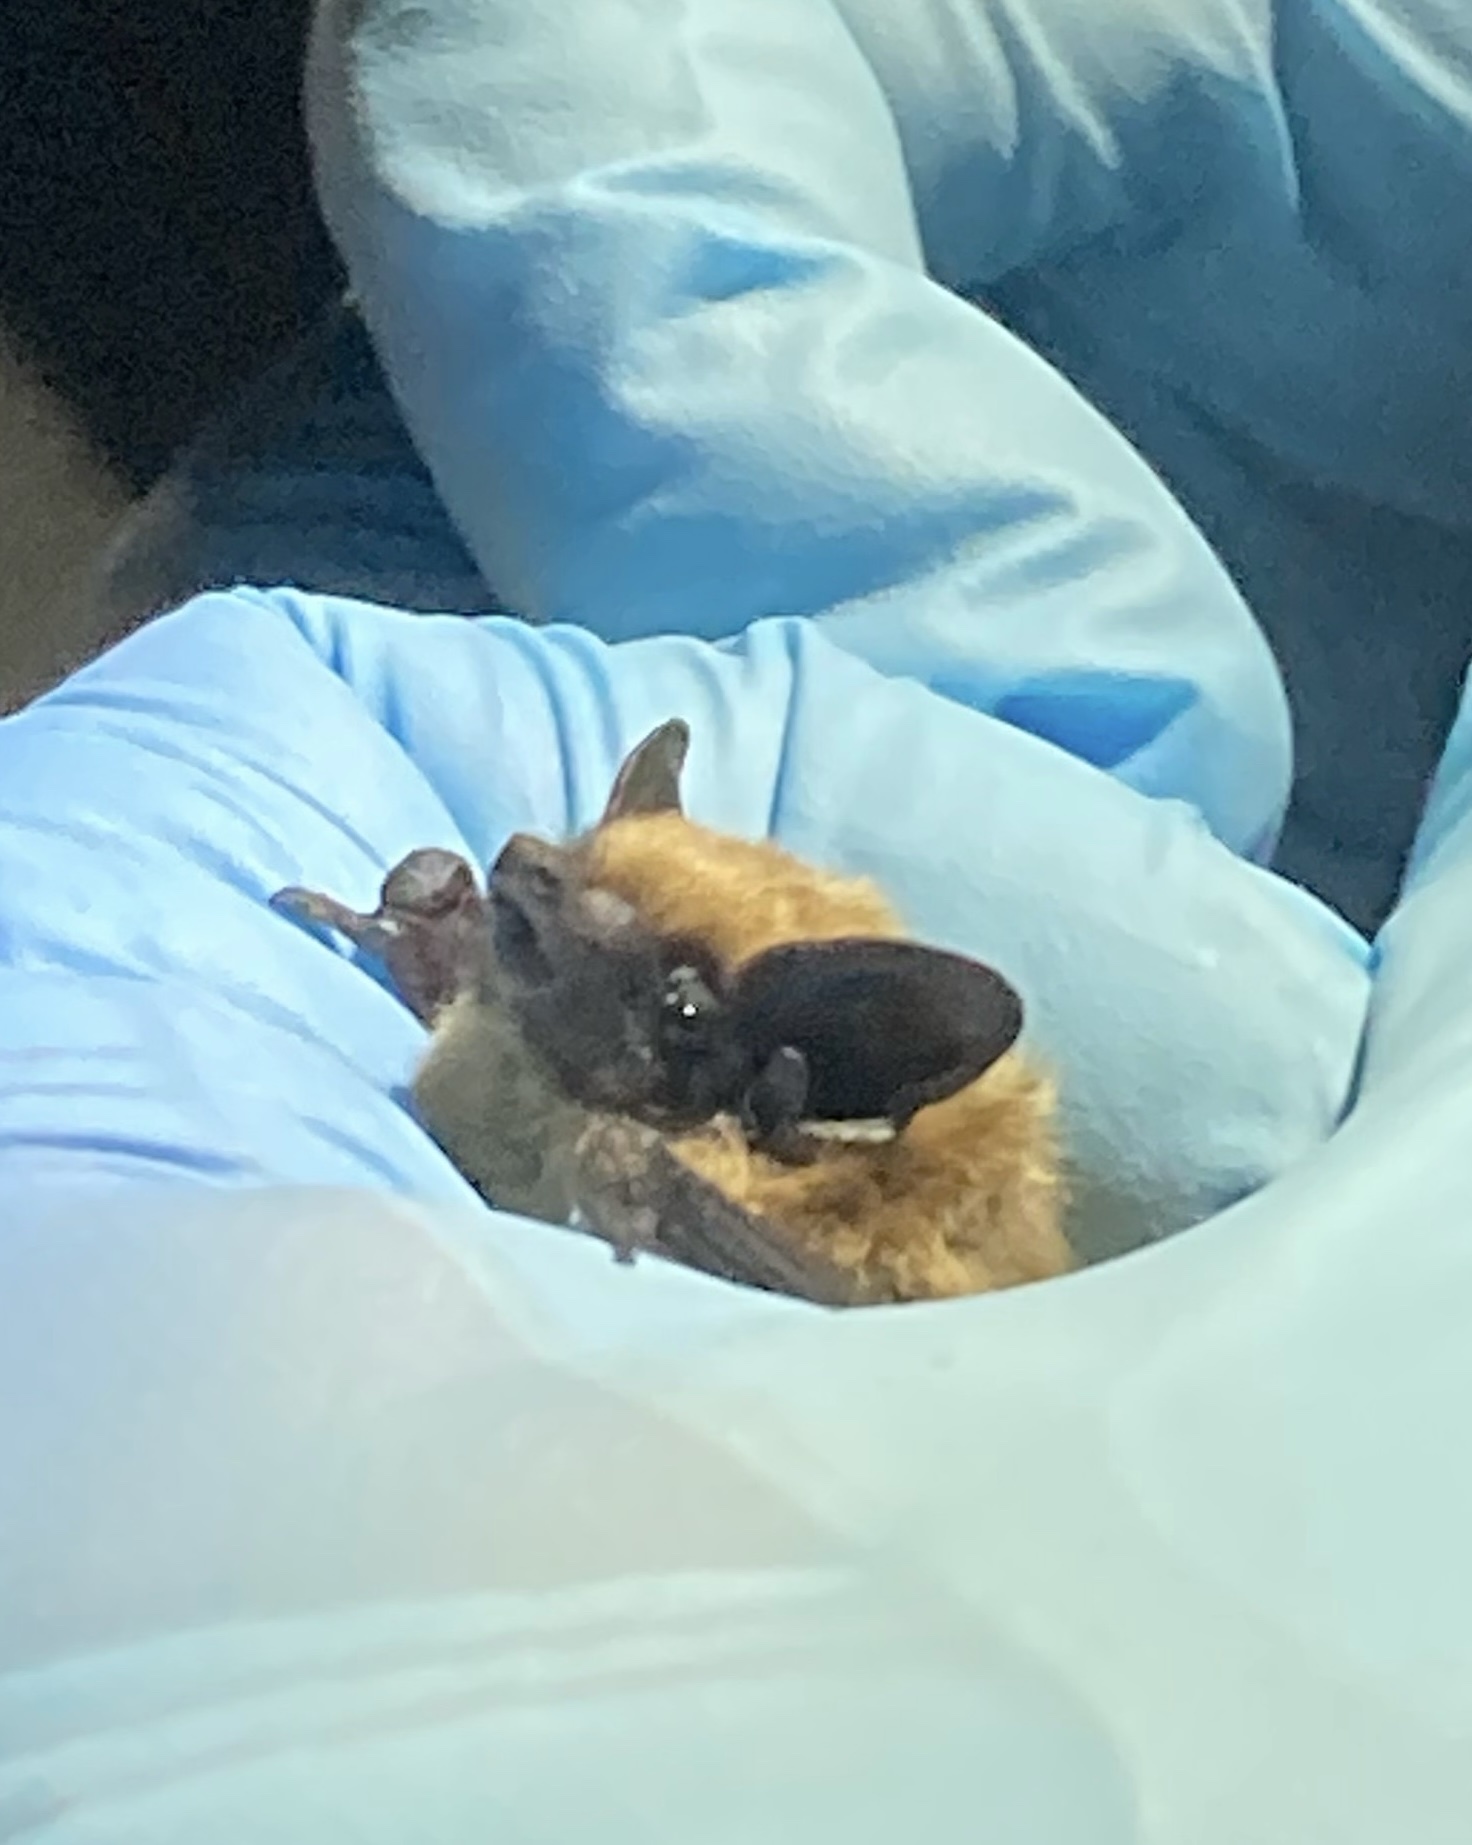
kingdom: Animalia
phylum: Chordata
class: Mammalia
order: Chiroptera
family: Vespertilionidae
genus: Parastrellus
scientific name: Parastrellus hesperus
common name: Canyon bat
